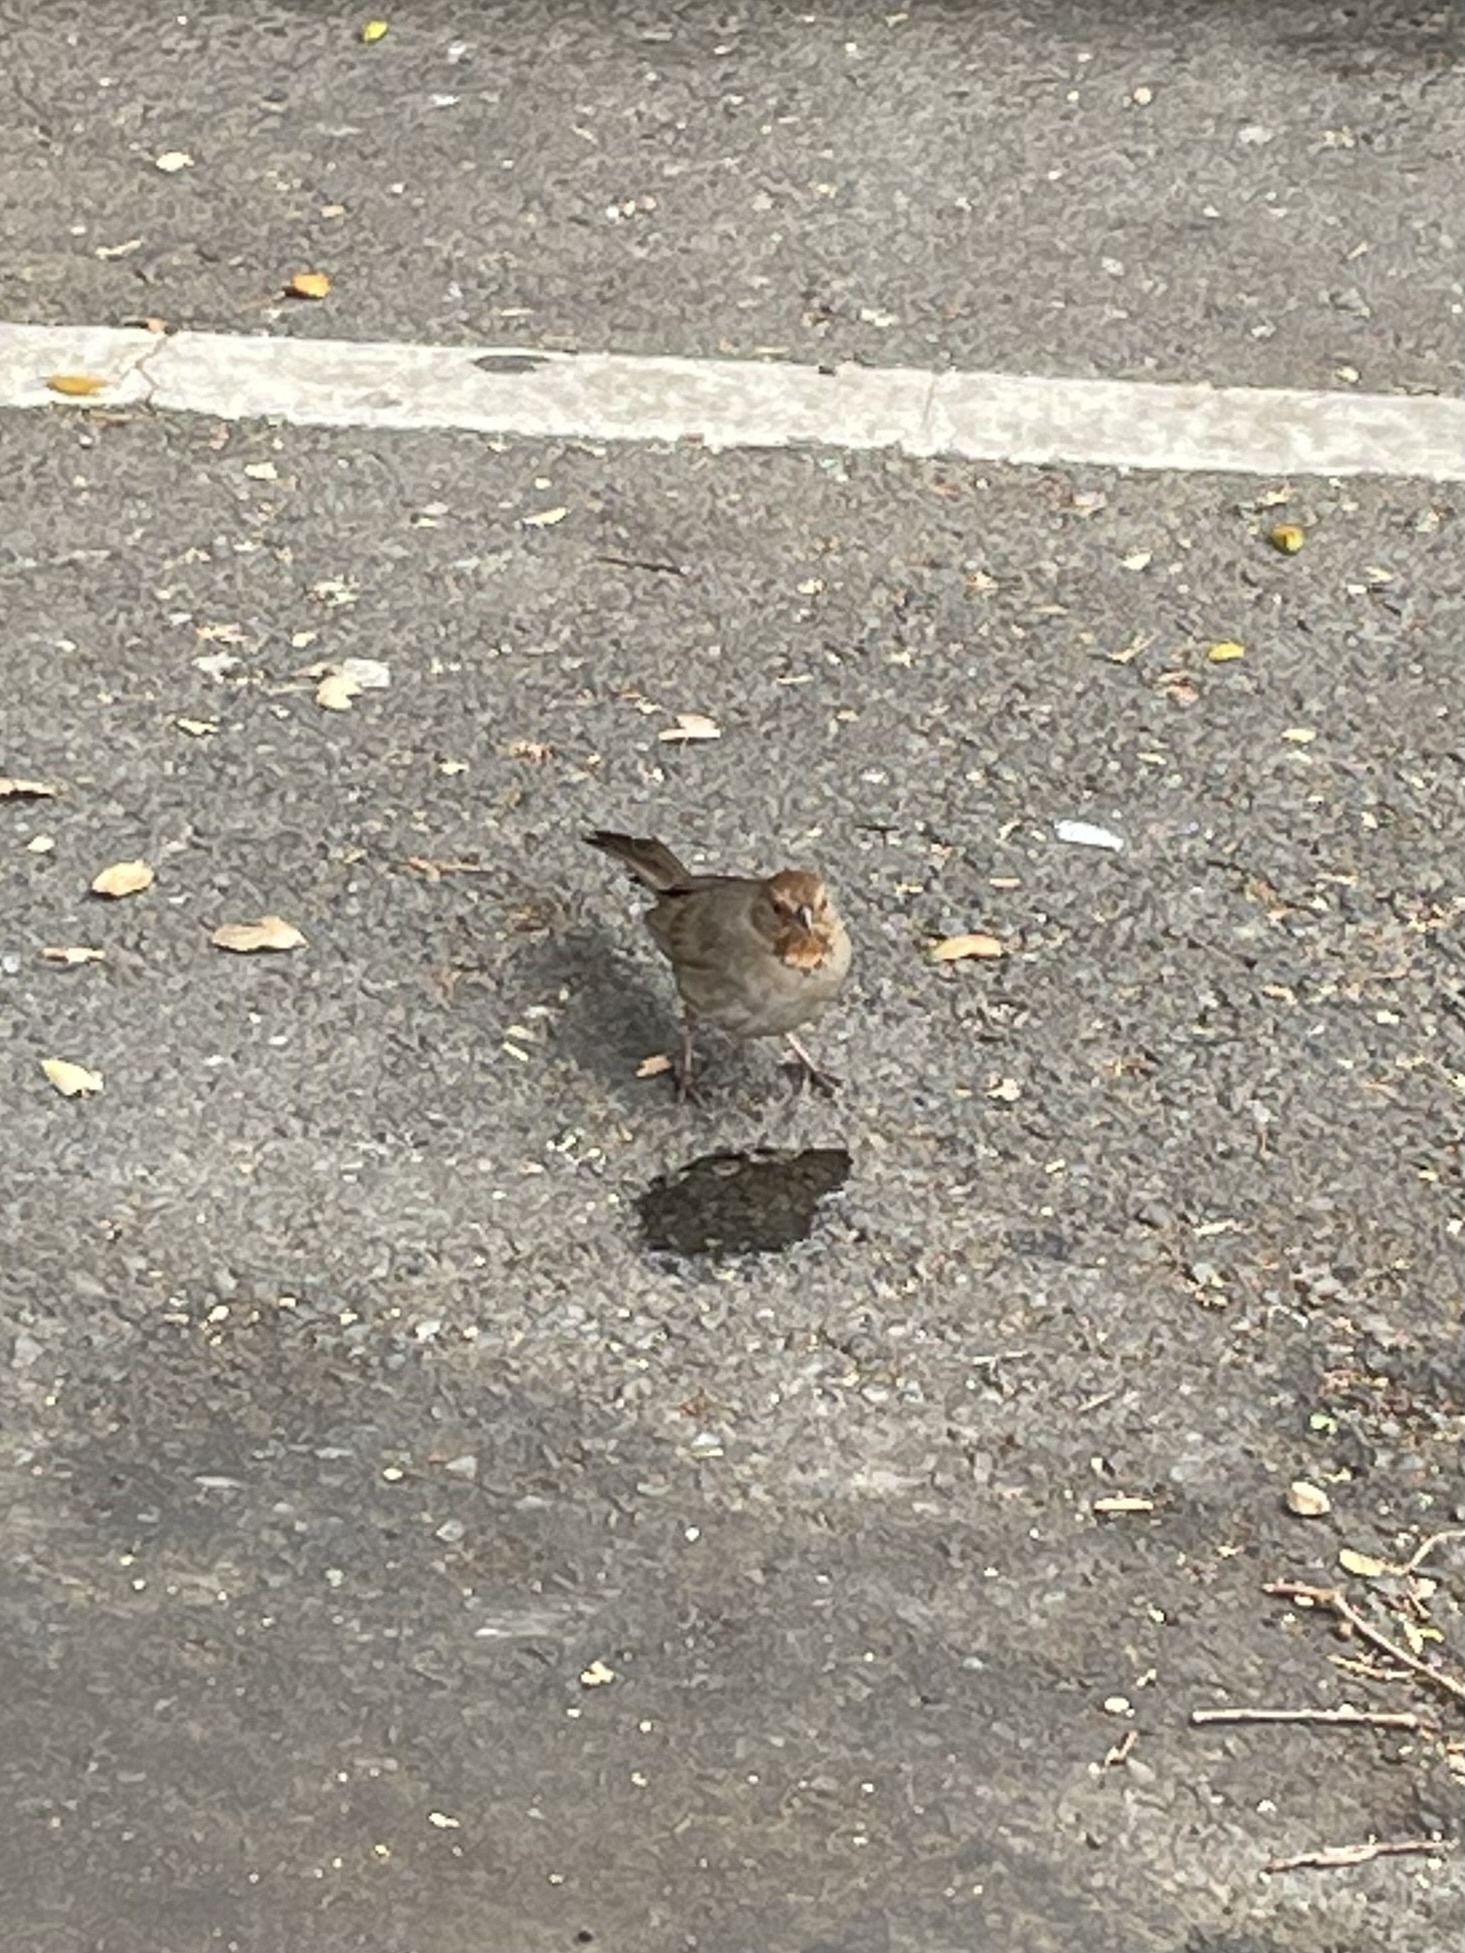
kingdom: Animalia
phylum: Chordata
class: Aves
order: Passeriformes
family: Passerellidae
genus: Melozone
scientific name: Melozone crissalis
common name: California towhee
